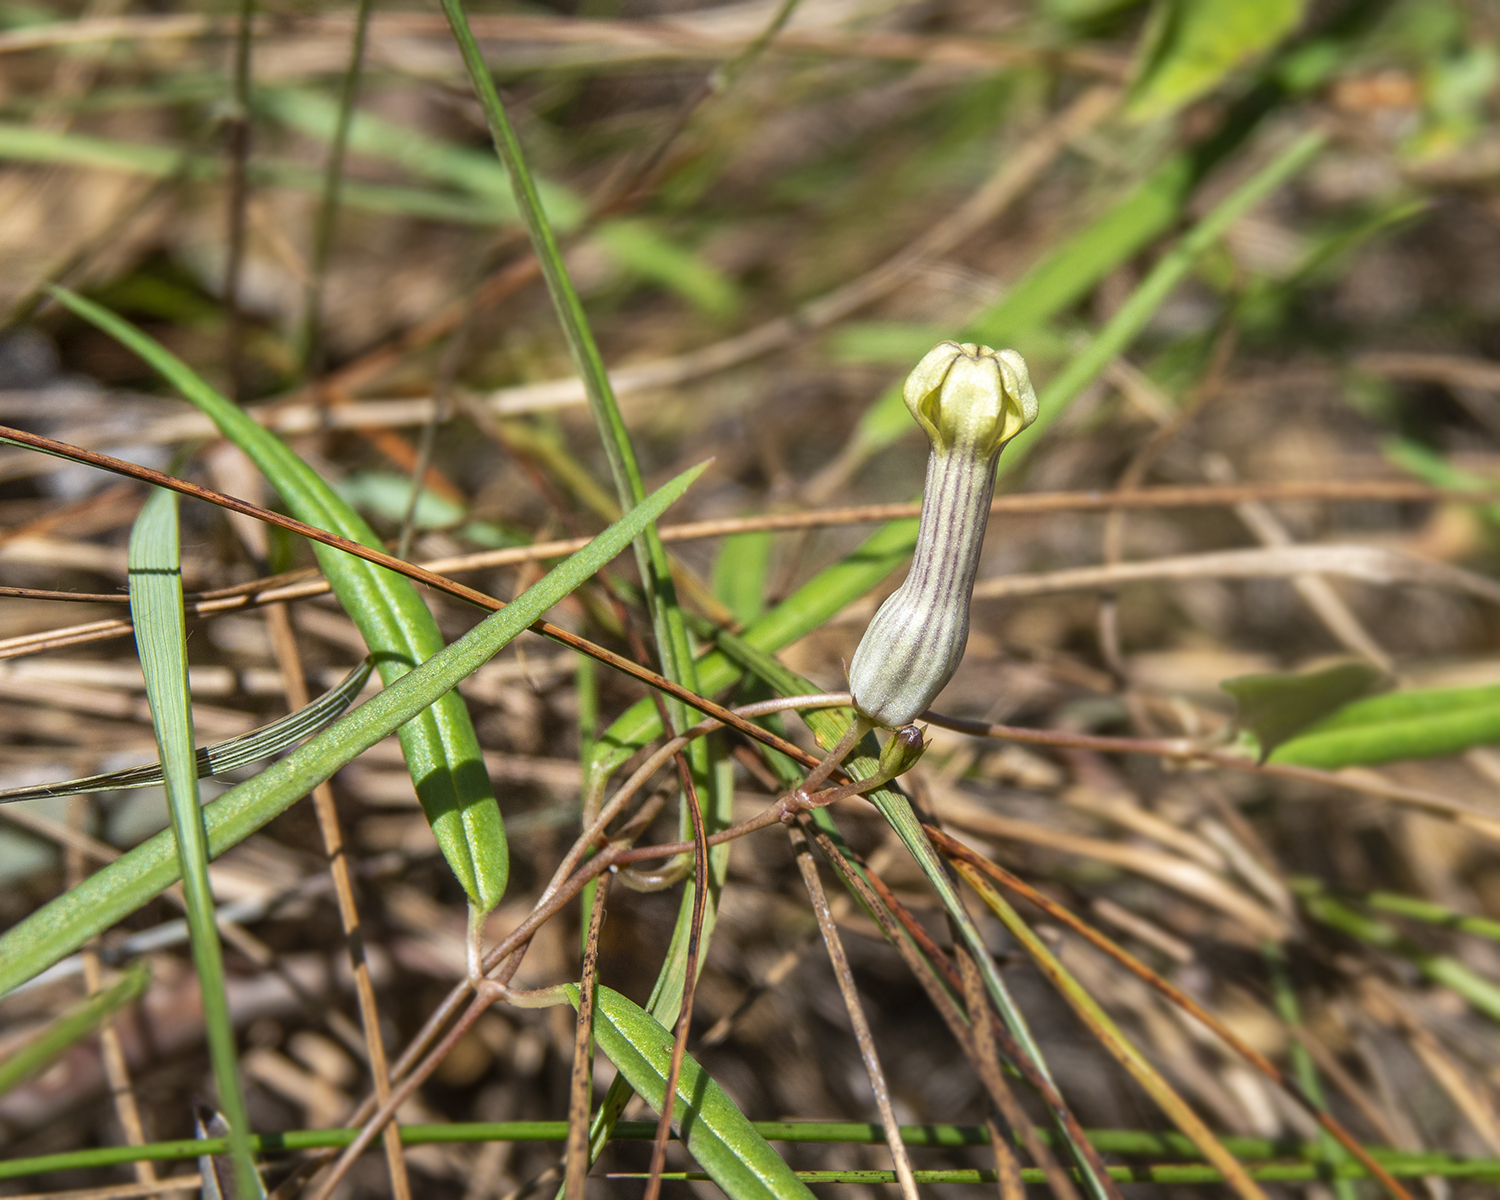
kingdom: Plantae
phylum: Tracheophyta
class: Magnoliopsida
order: Gentianales
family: Apocynaceae
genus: Ceropegia
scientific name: Ceropegia ravikumariana
